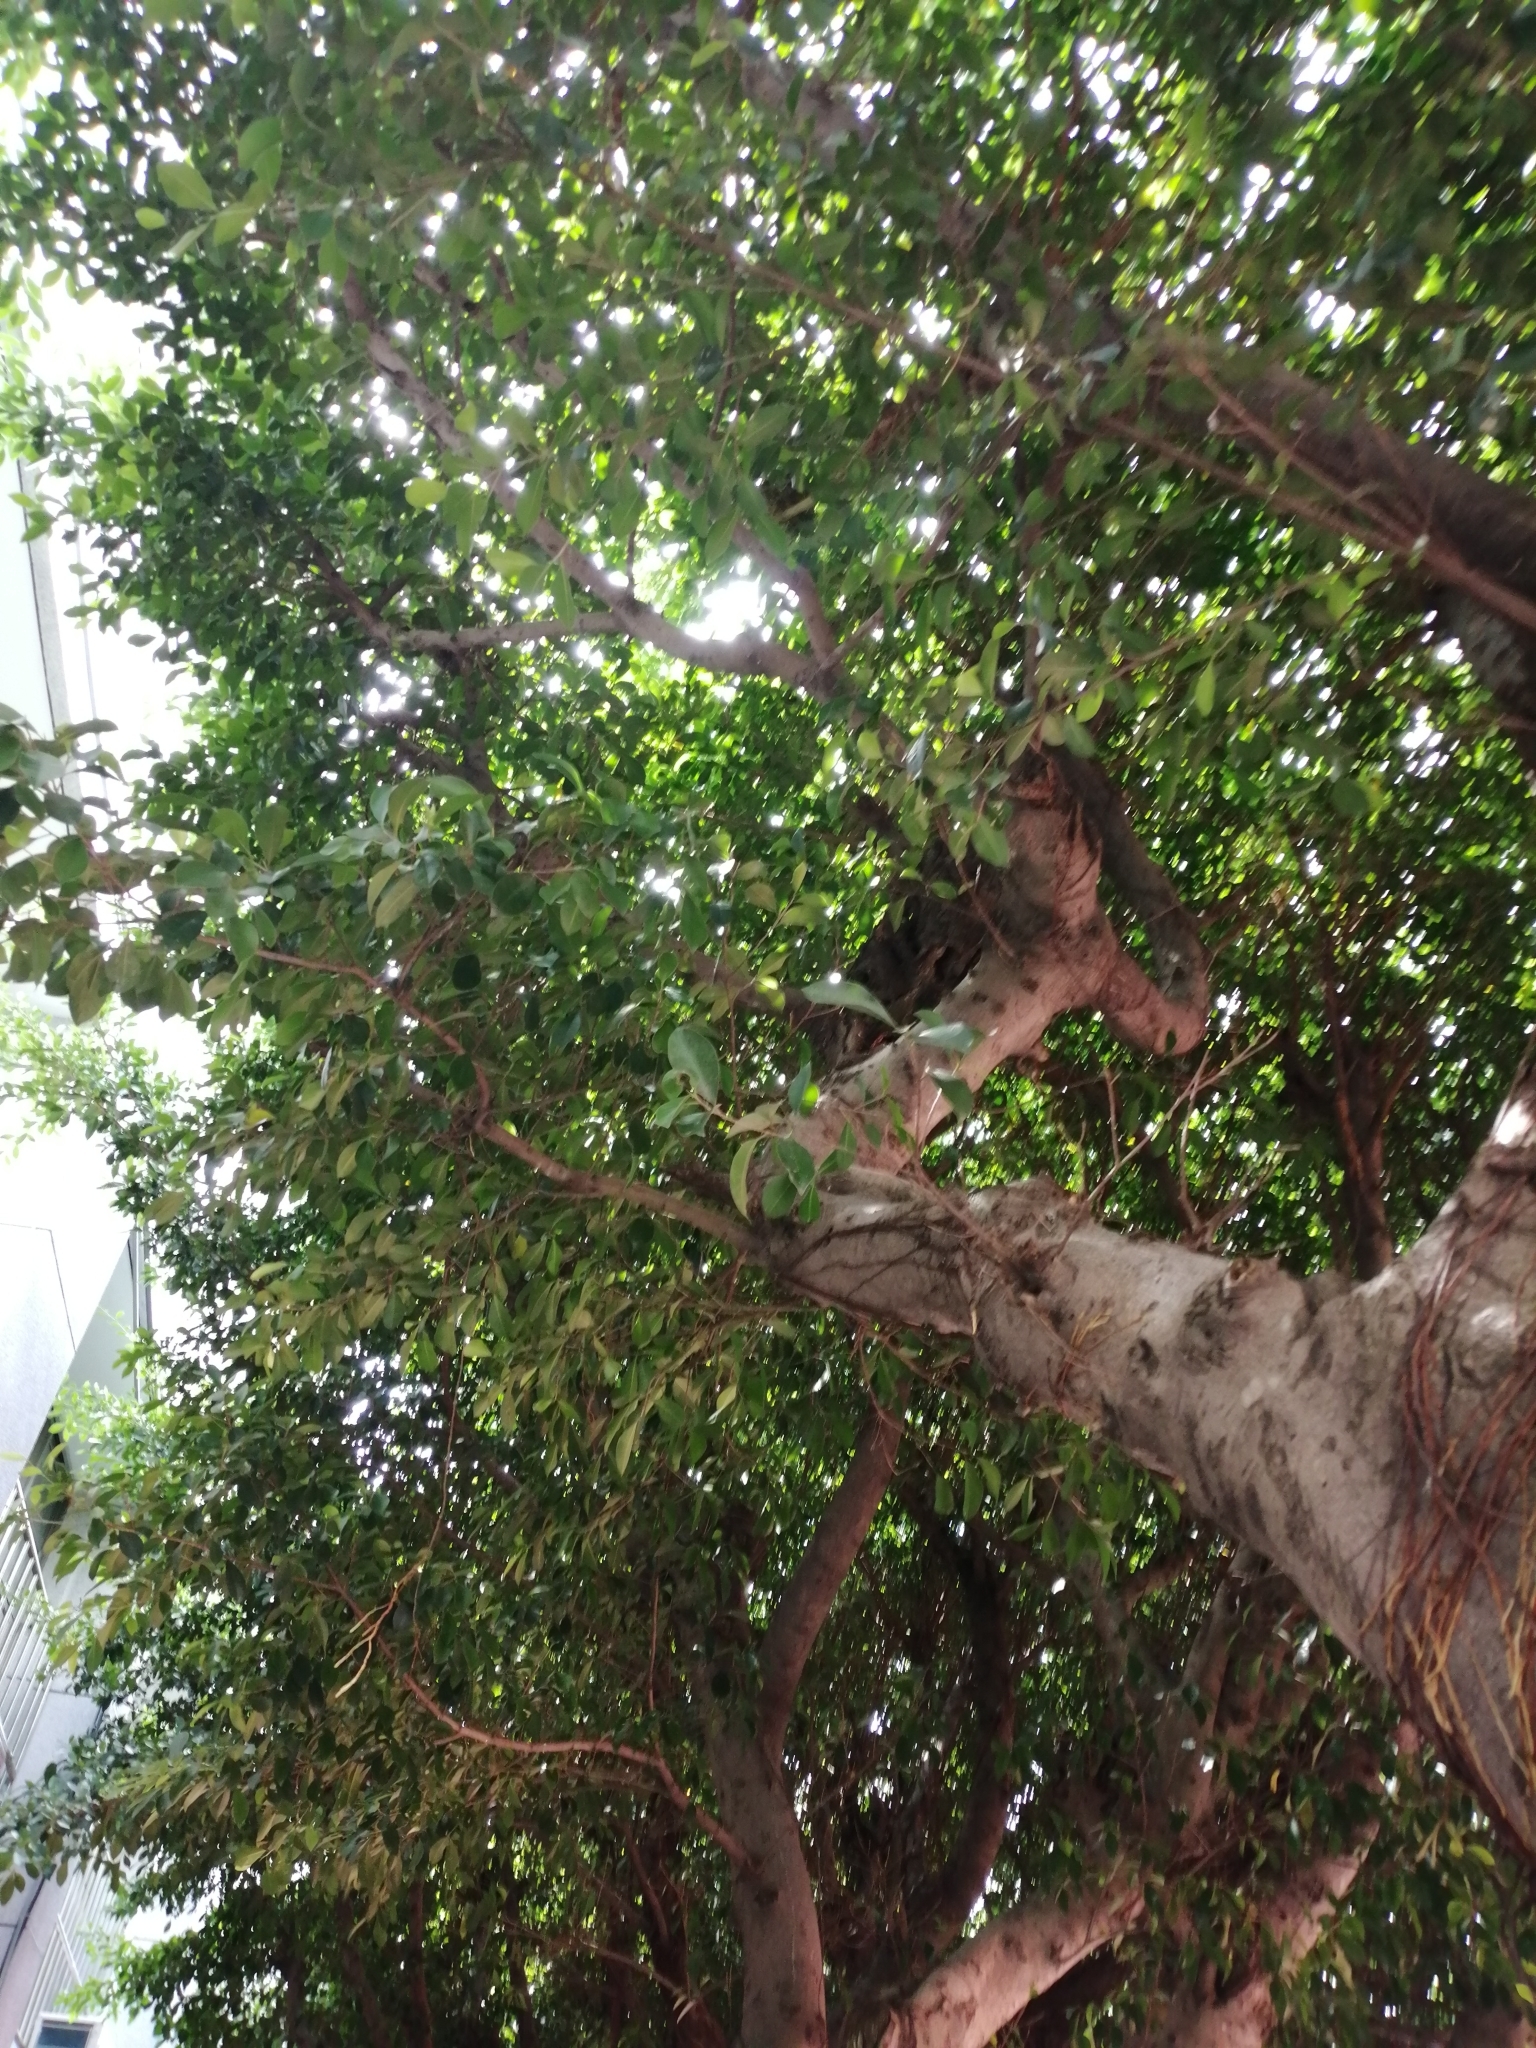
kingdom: Plantae
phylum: Tracheophyta
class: Magnoliopsida
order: Rosales
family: Moraceae
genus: Ficus
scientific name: Ficus microcarpa
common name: Chinese banyan
